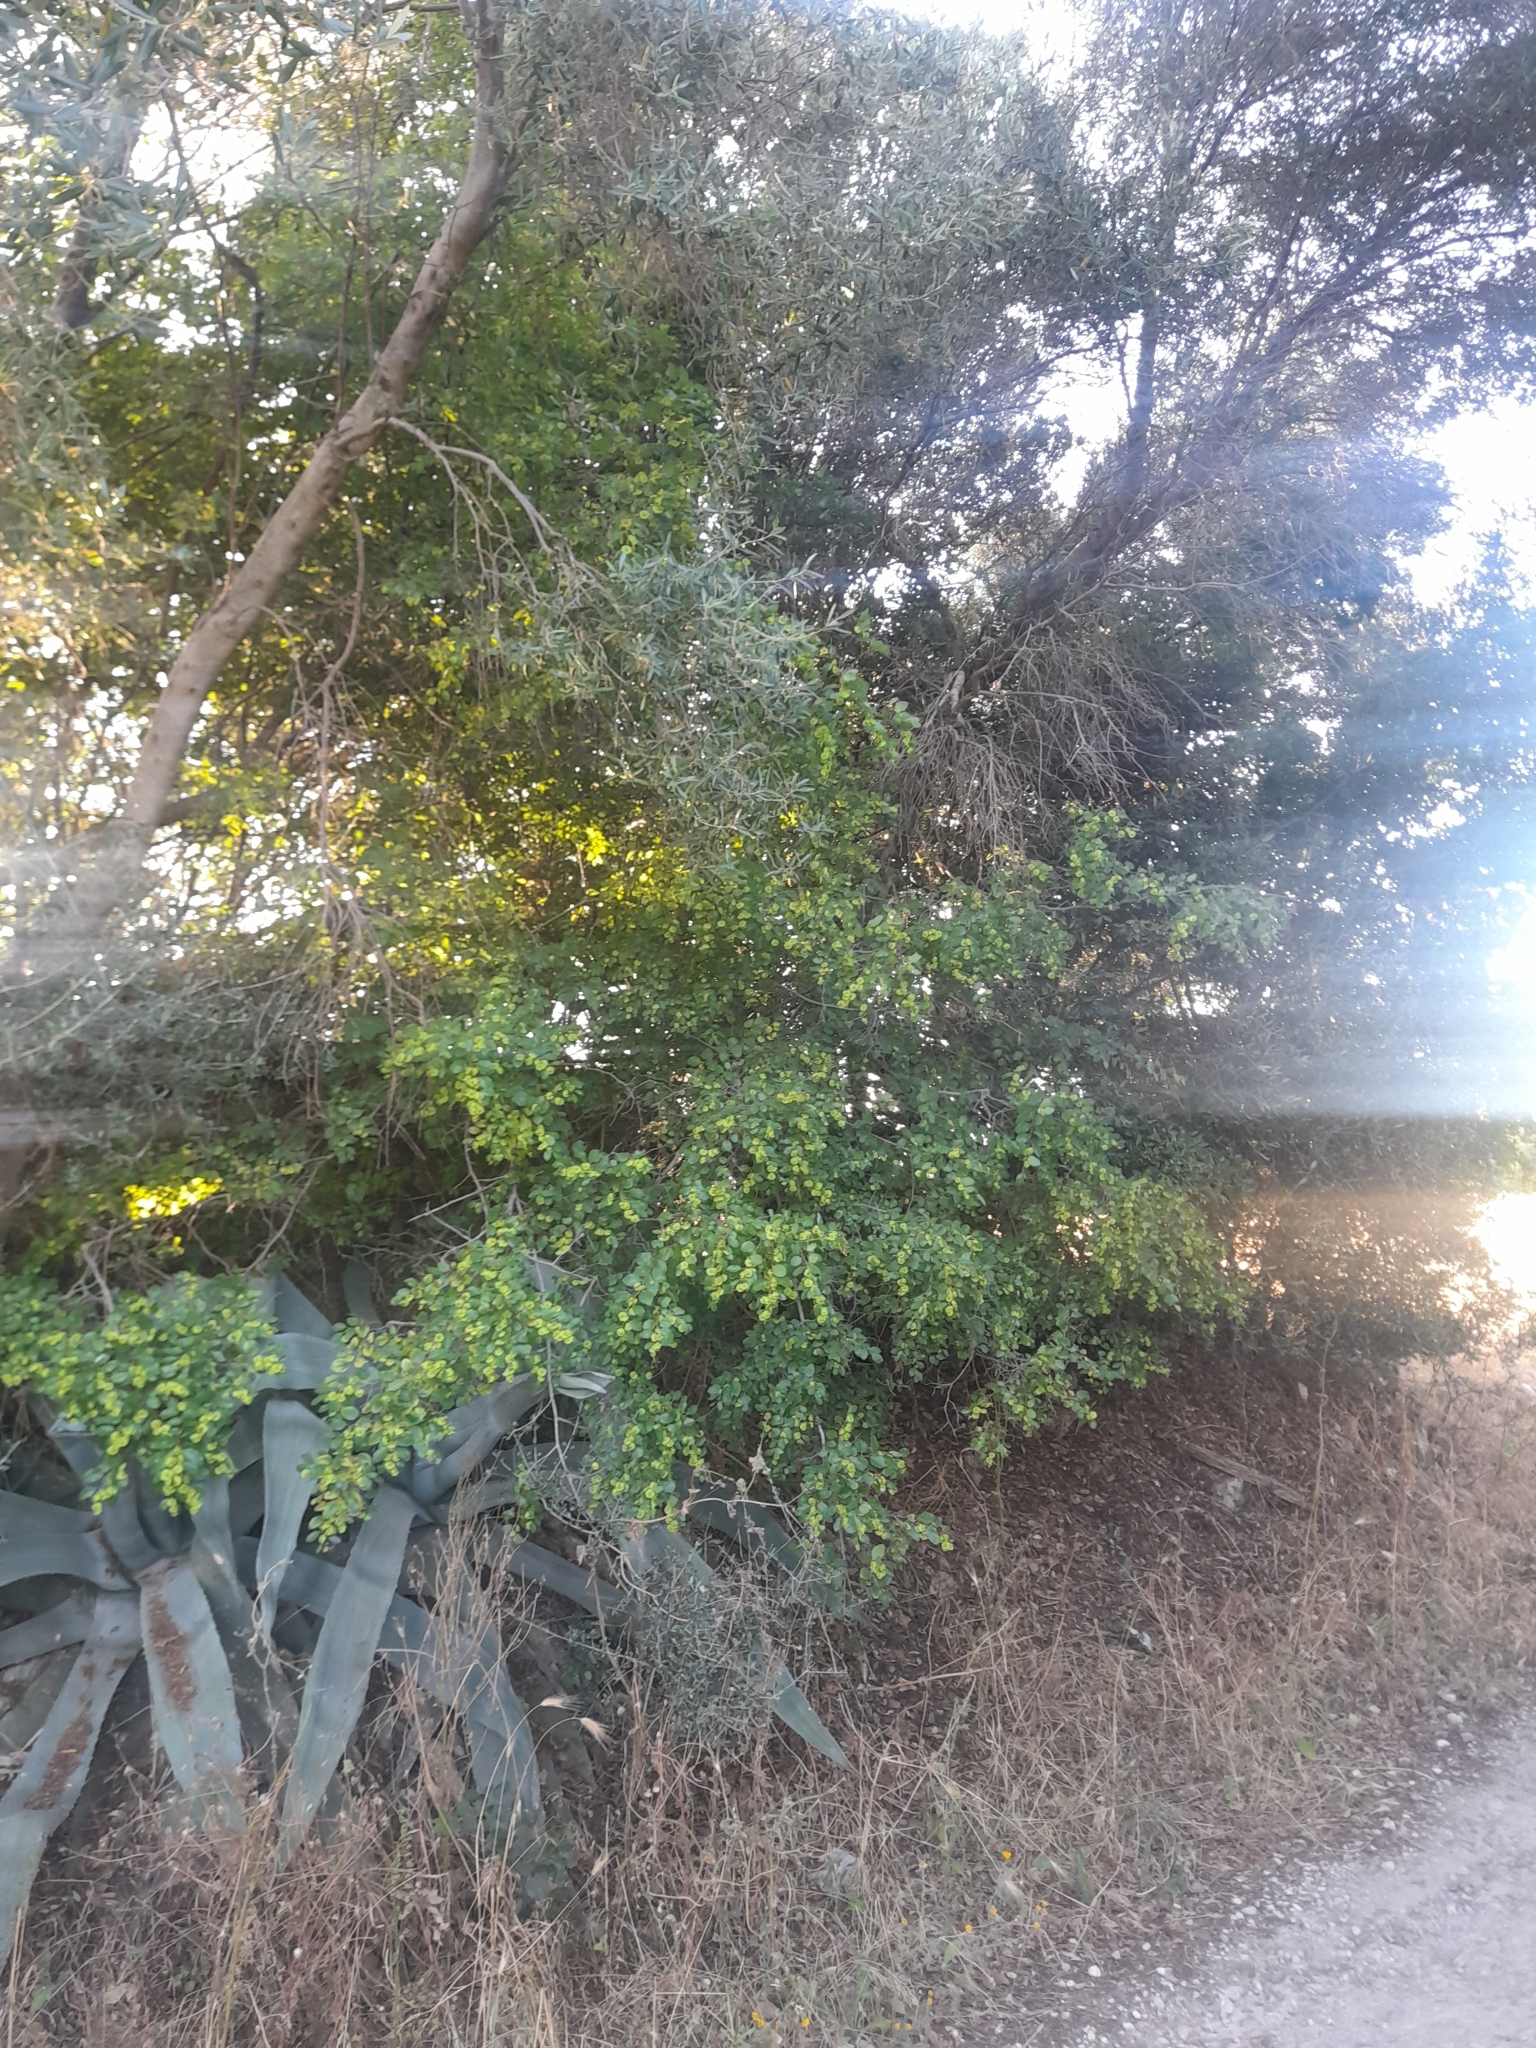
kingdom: Plantae
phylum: Tracheophyta
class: Magnoliopsida
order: Rosales
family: Rhamnaceae
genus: Paliurus
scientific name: Paliurus spina-christi
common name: Jeruselem thorn
